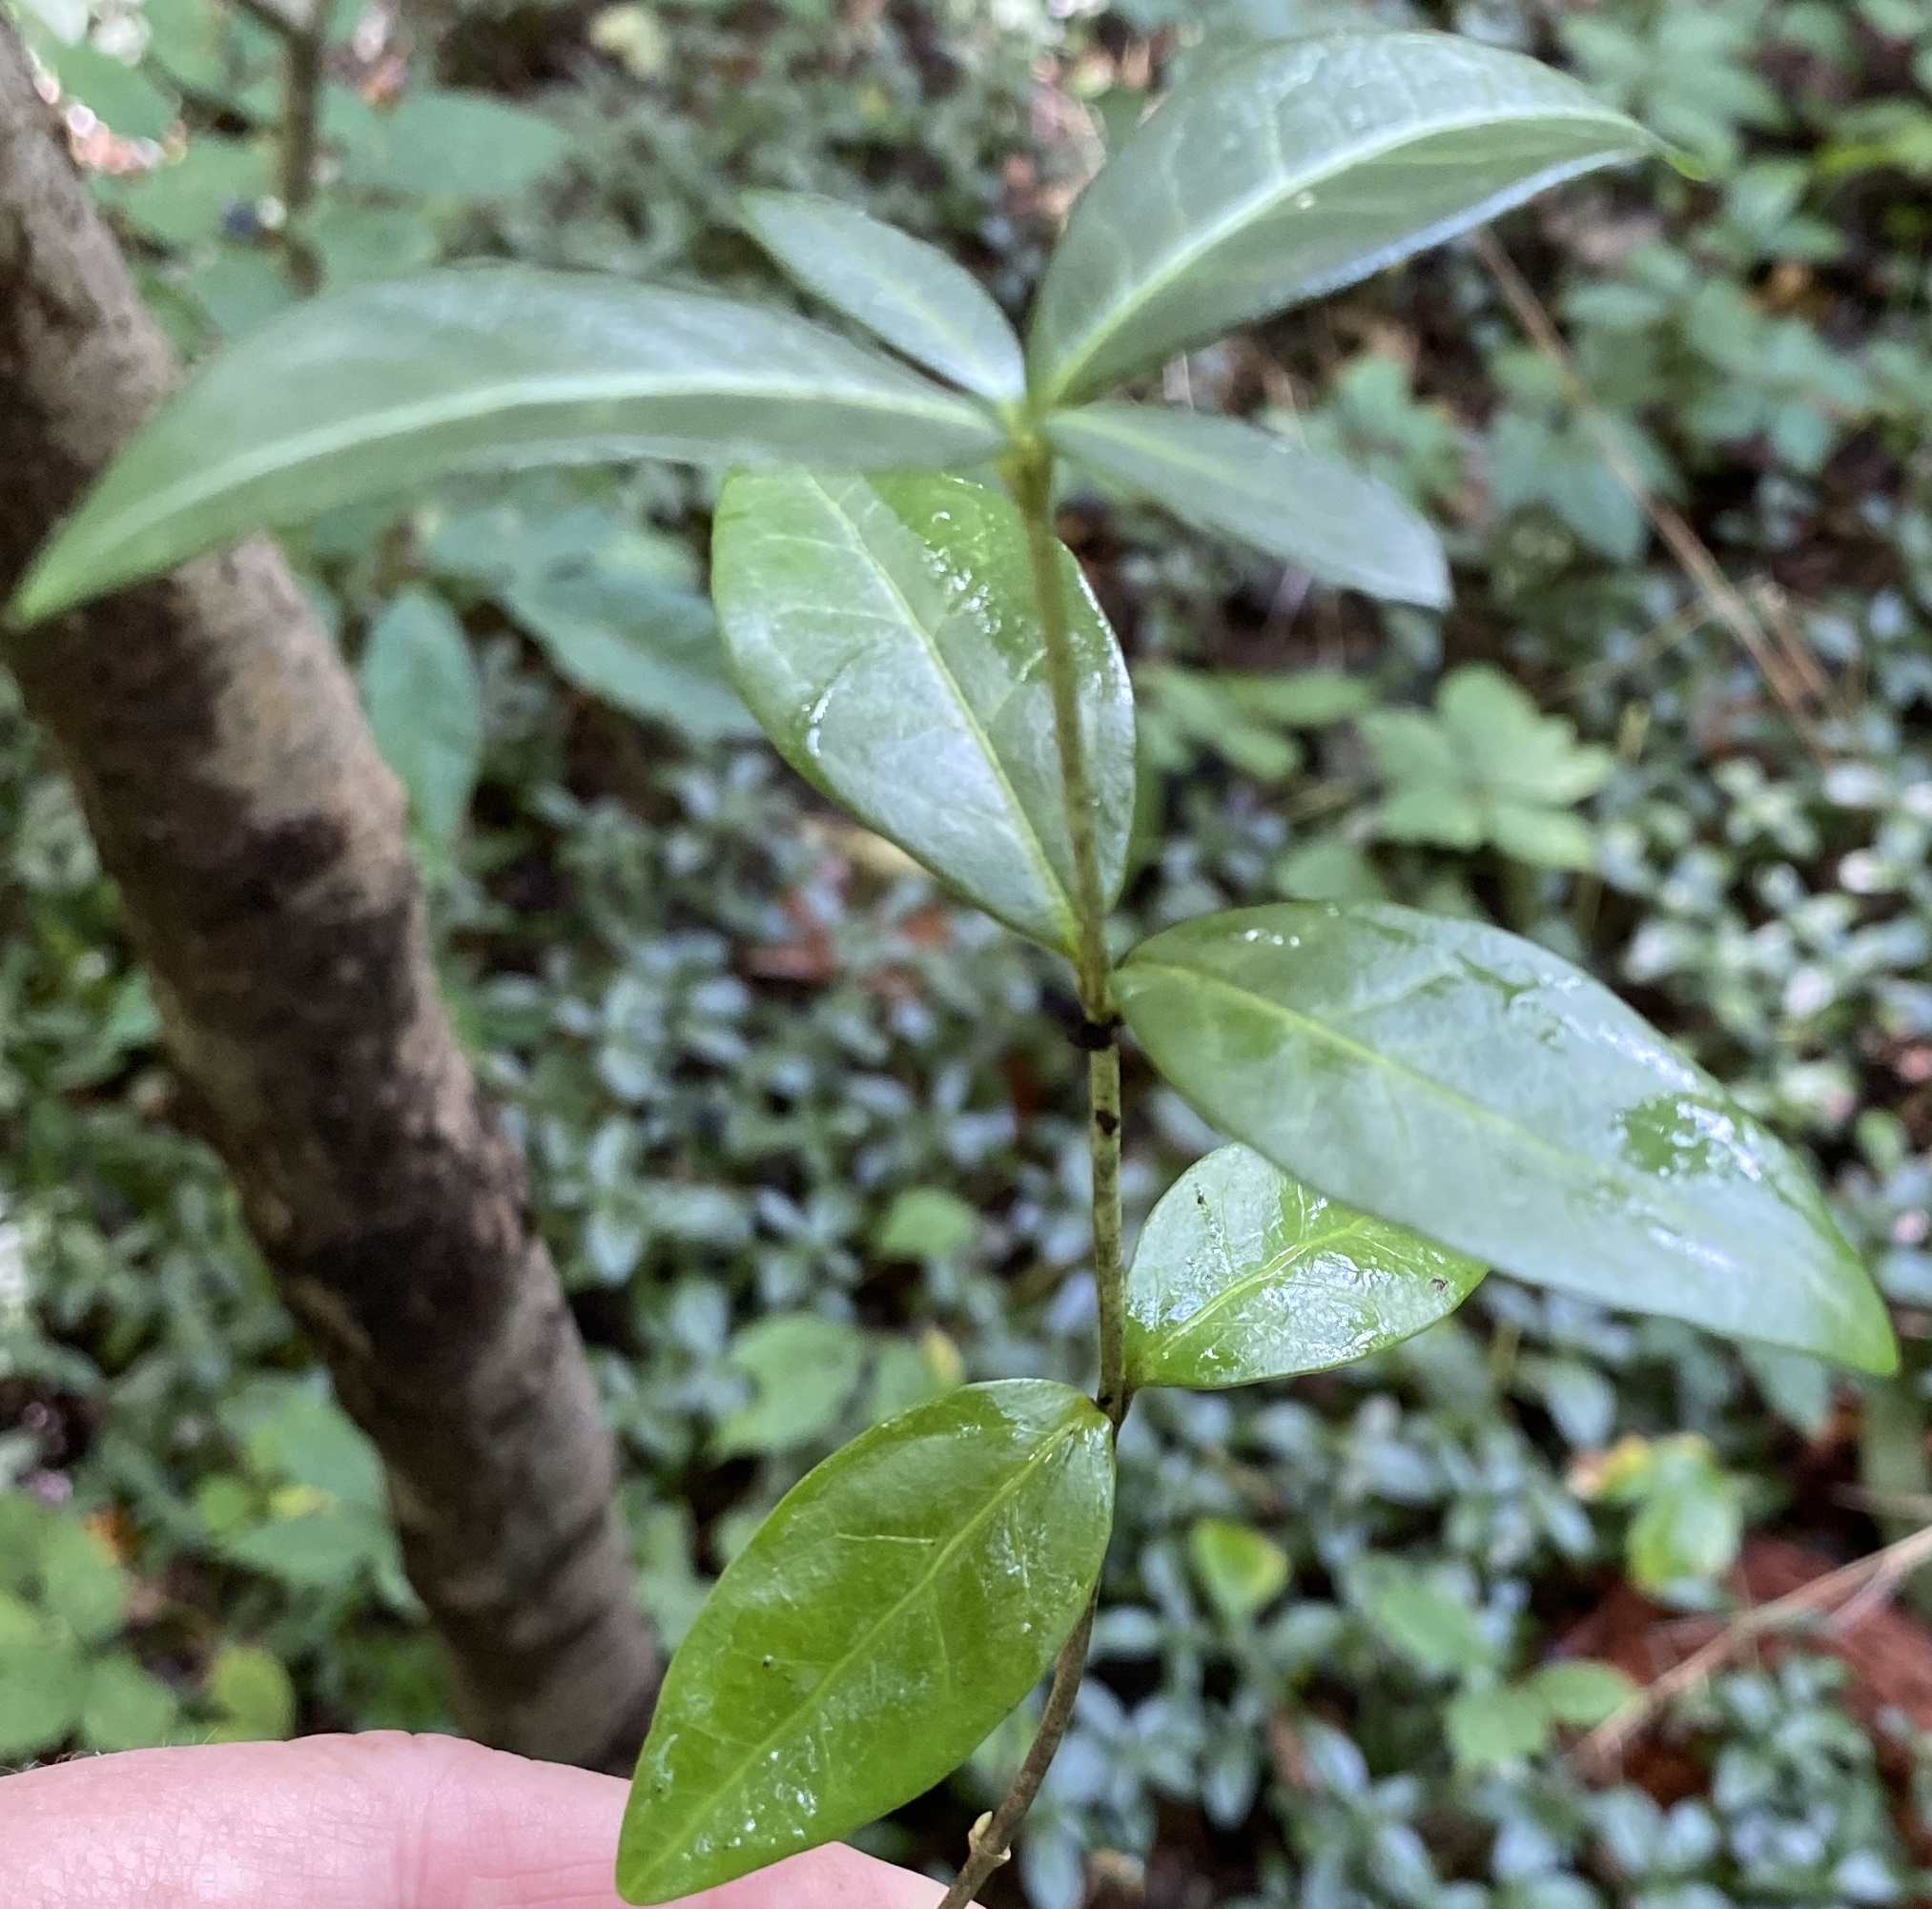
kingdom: Plantae
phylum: Tracheophyta
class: Magnoliopsida
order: Gentianales
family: Apocynaceae
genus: Vinca
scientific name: Vinca minor
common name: Lesser periwinkle
